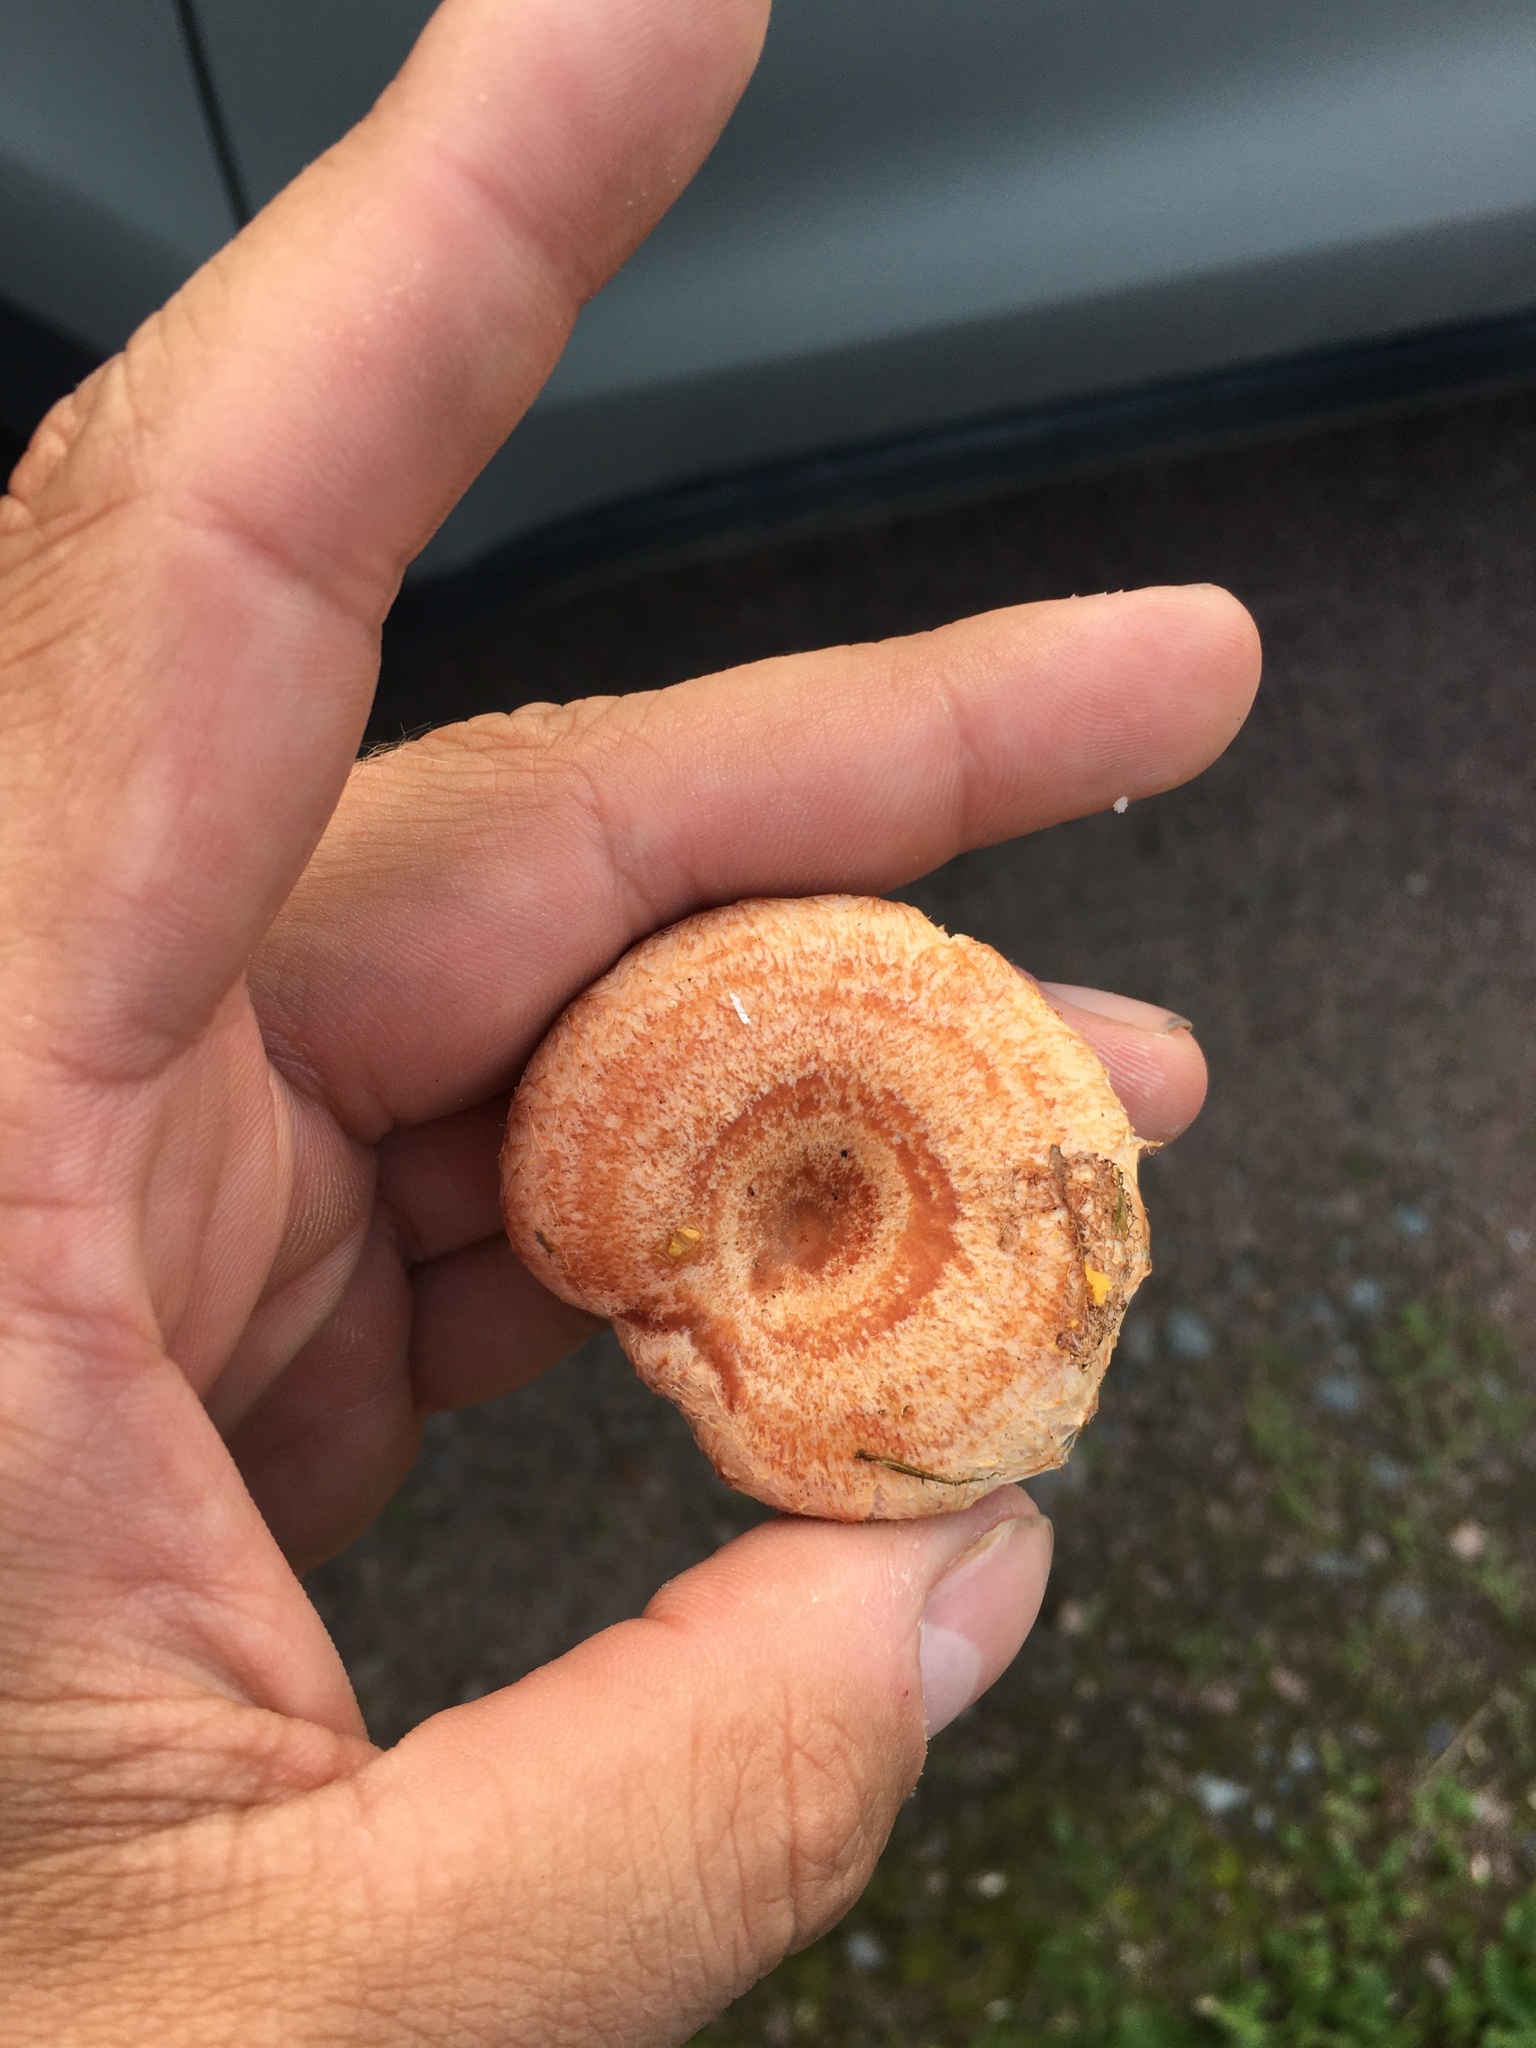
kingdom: Fungi
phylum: Basidiomycota
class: Agaricomycetes
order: Russulales
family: Russulaceae
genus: Lactarius
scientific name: Lactarius torminosus
